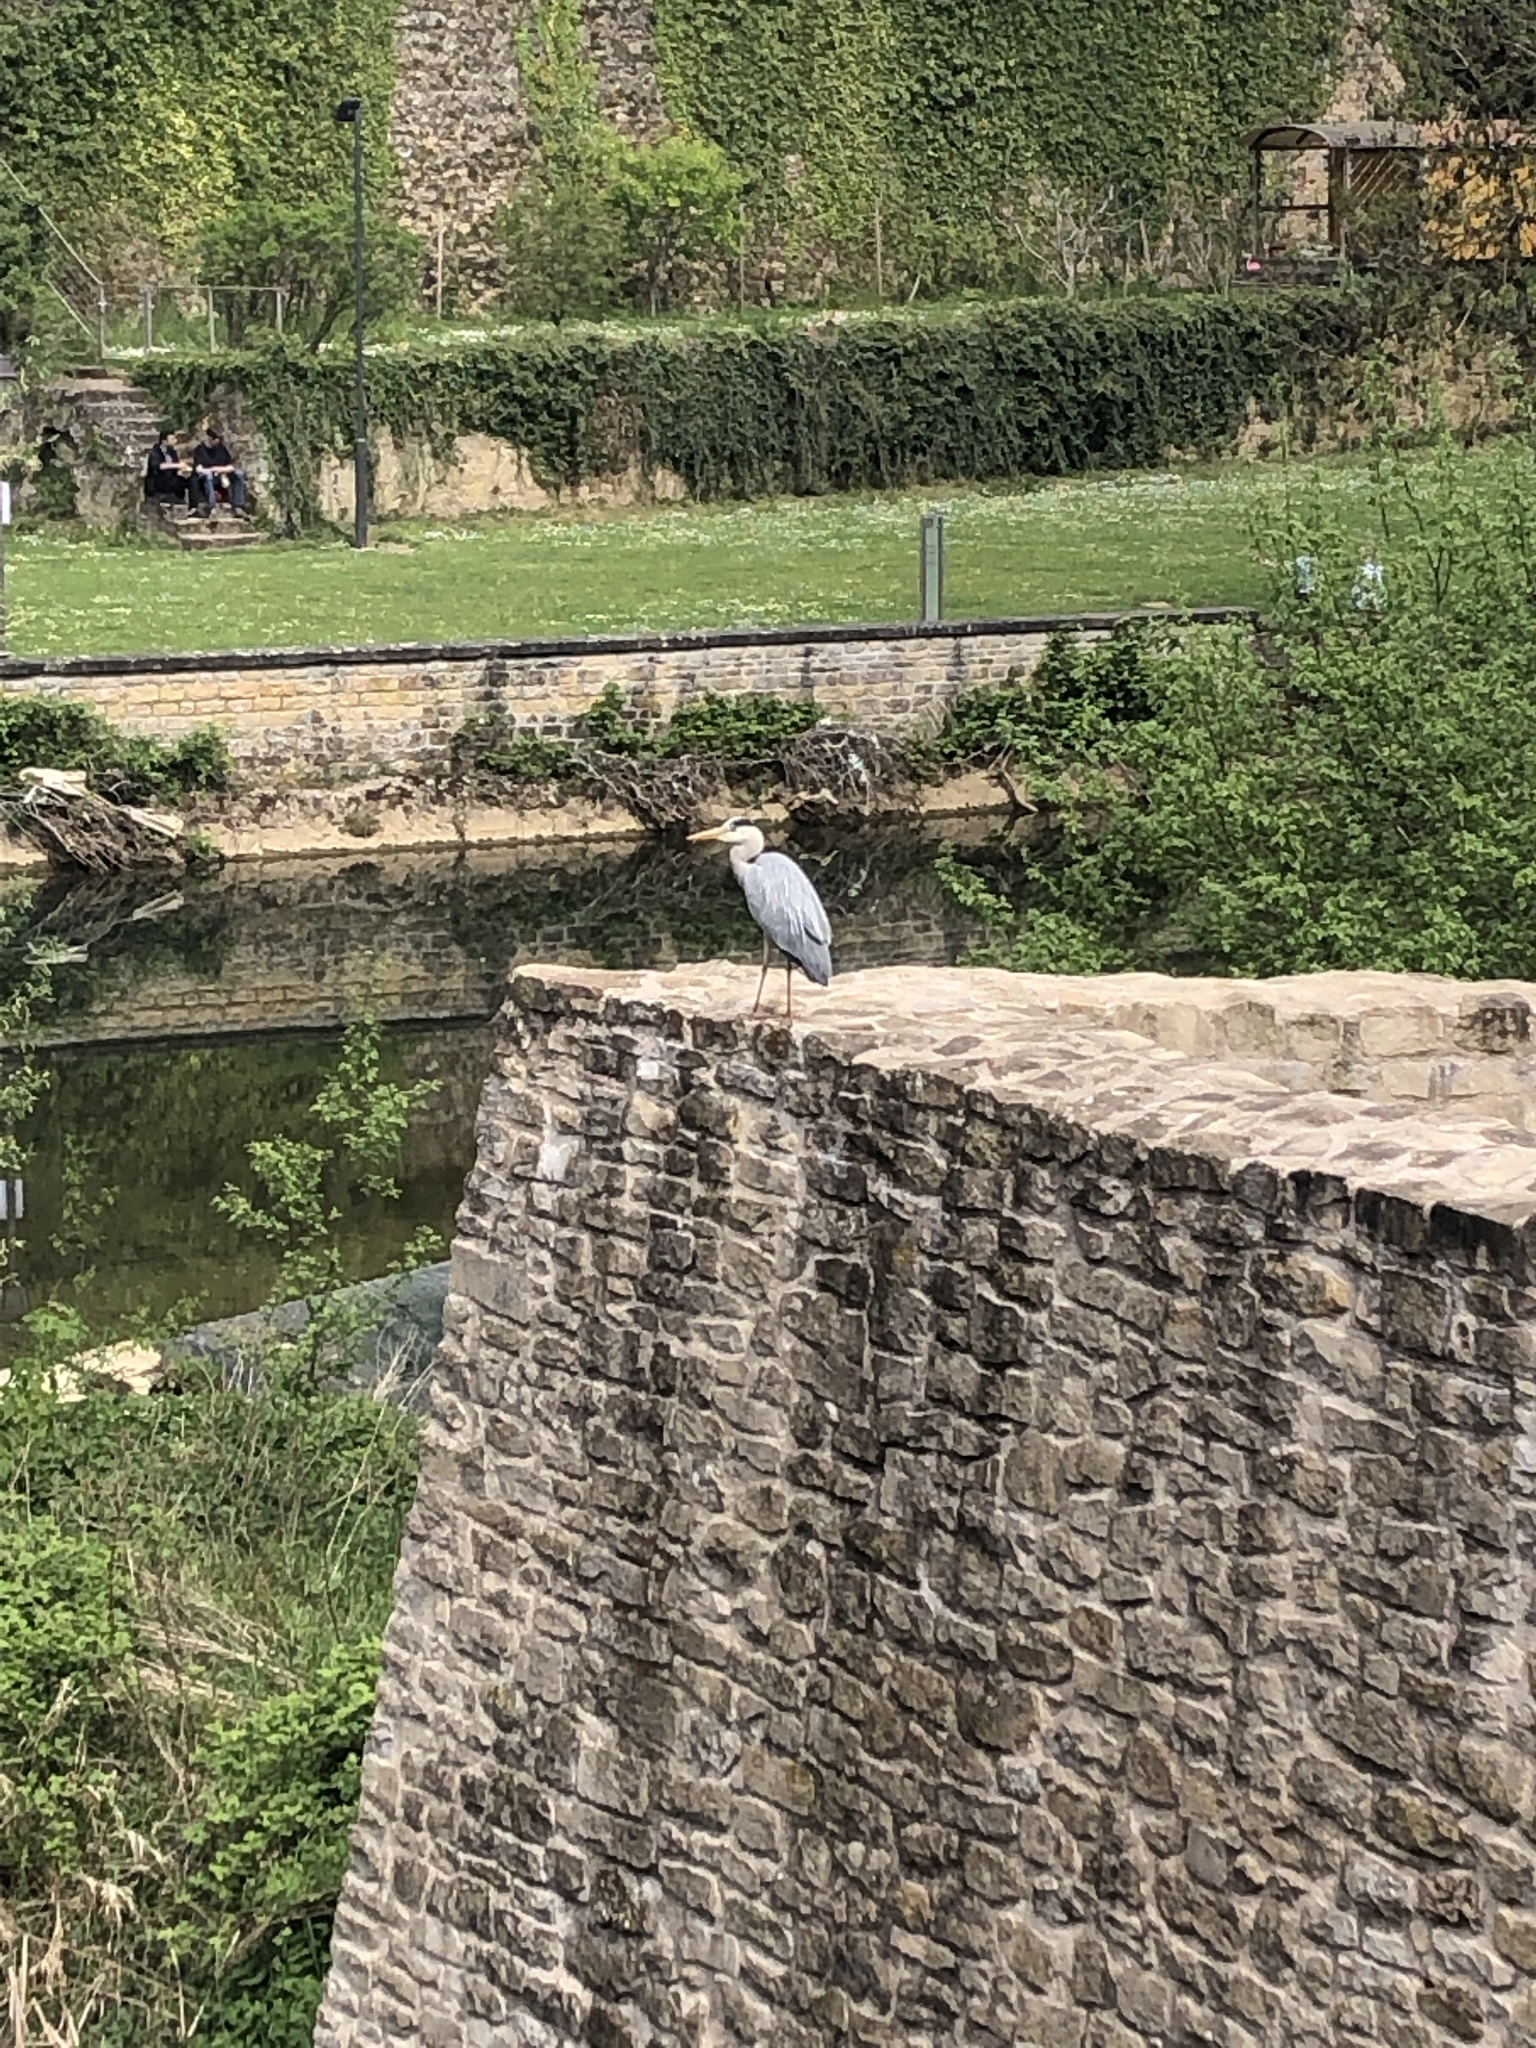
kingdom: Animalia
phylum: Chordata
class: Aves
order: Pelecaniformes
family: Ardeidae
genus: Ardea
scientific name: Ardea cinerea
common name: Grey heron
